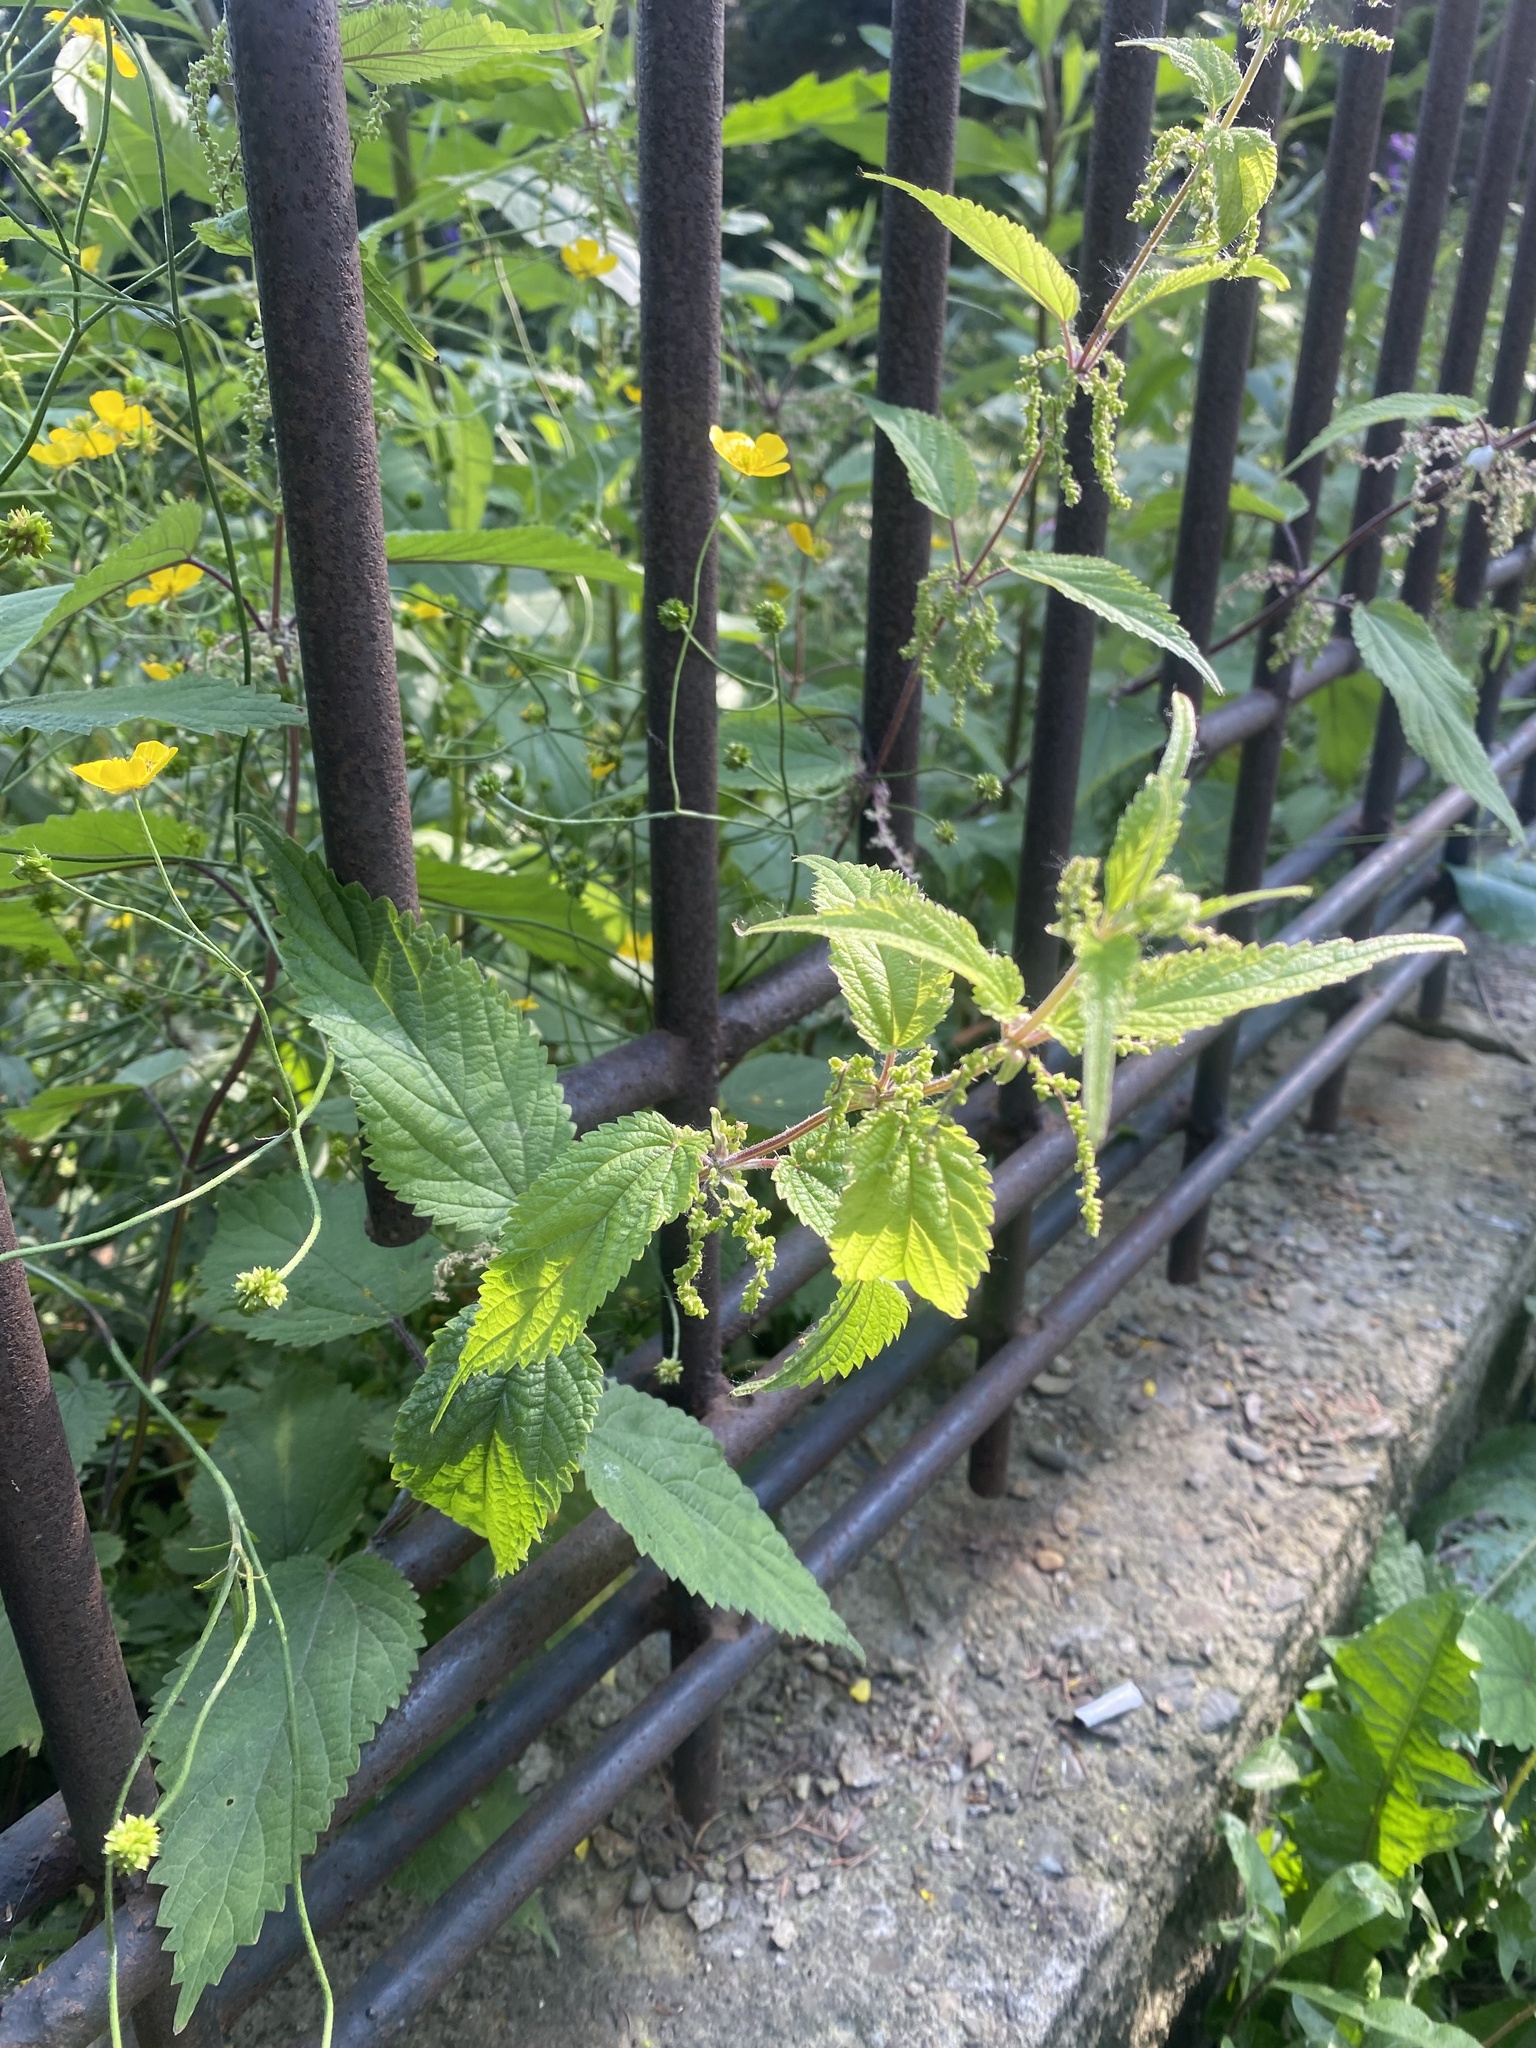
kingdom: Plantae
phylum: Tracheophyta
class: Magnoliopsida
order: Rosales
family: Urticaceae
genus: Urtica
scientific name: Urtica platyphylla
